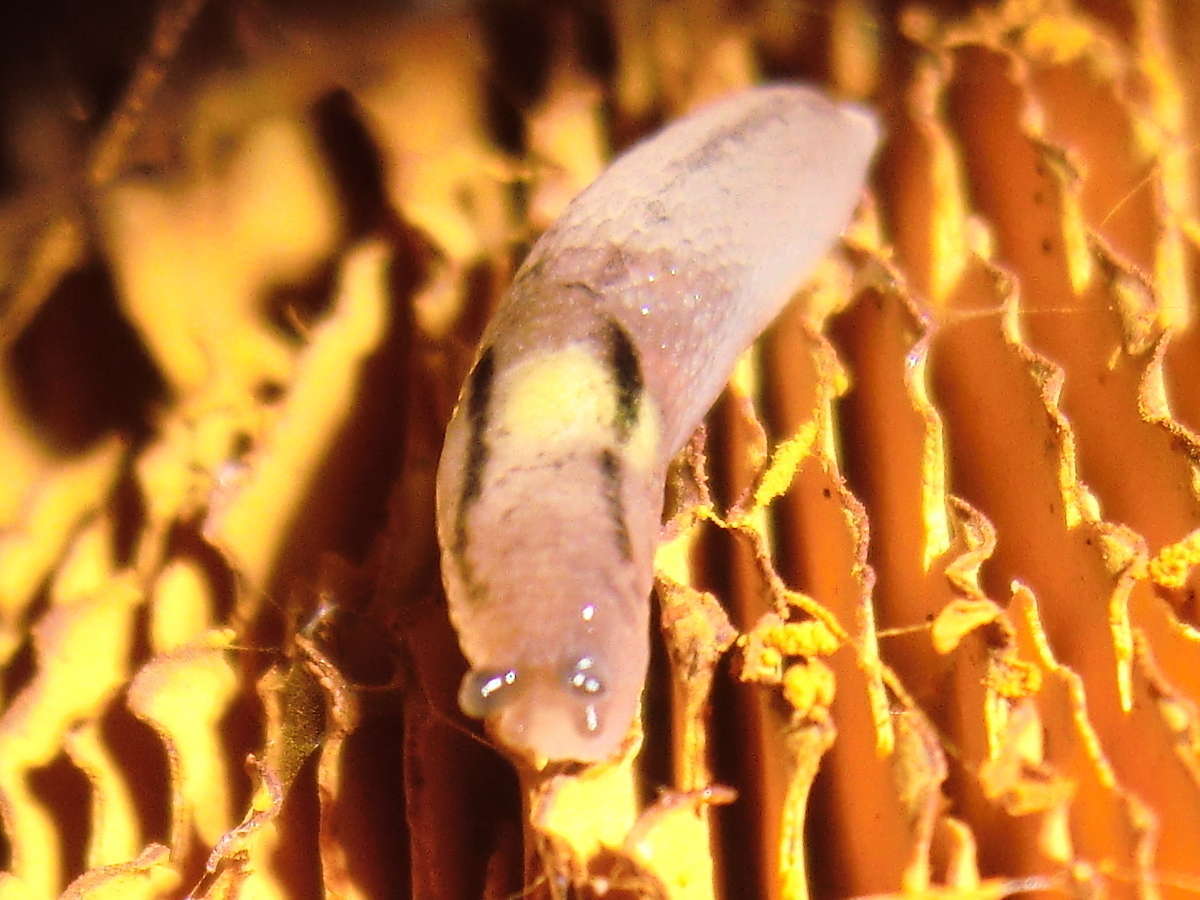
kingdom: Animalia
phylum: Mollusca
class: Gastropoda
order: Stylommatophora
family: Limacidae
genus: Ambigolimax
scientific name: Ambigolimax
